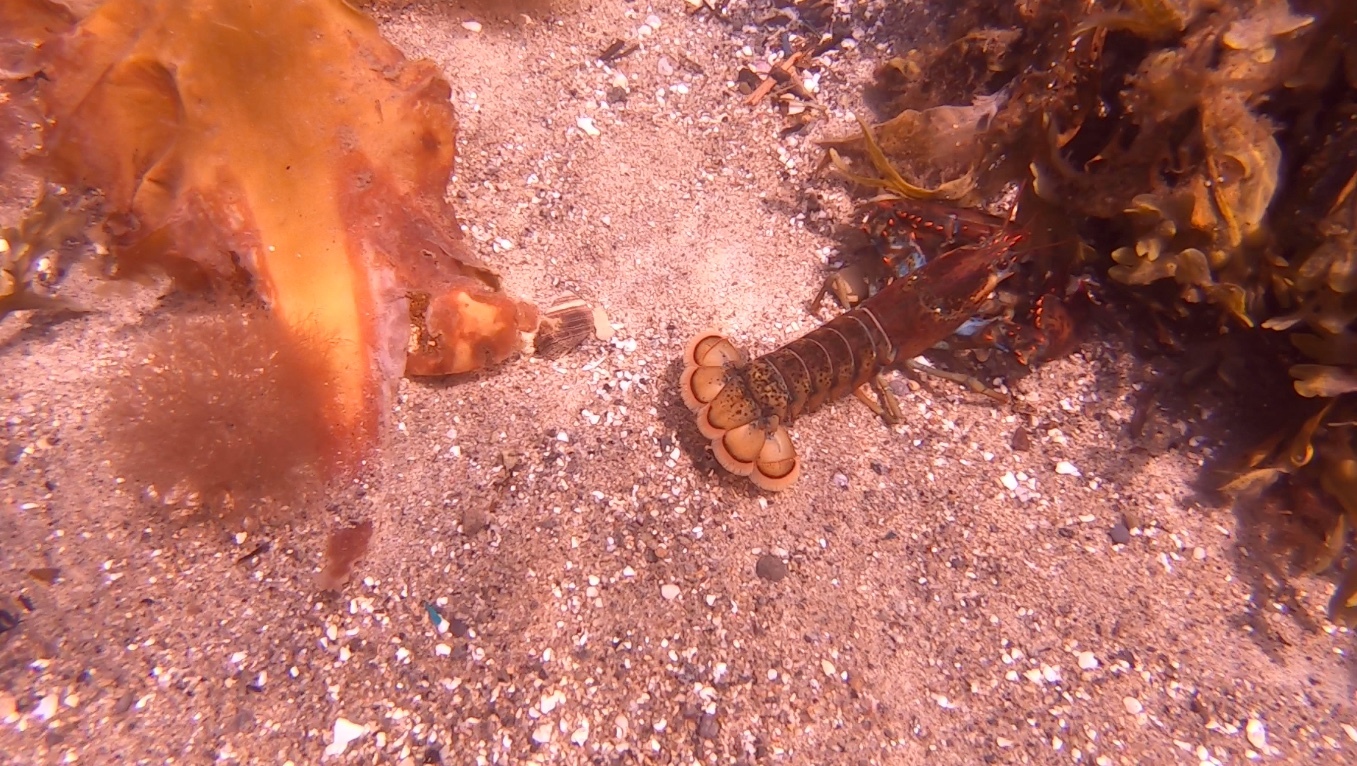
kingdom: Animalia
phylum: Arthropoda
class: Malacostraca
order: Decapoda
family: Nephropidae
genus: Homarus
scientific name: Homarus americanus
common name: American lobster
